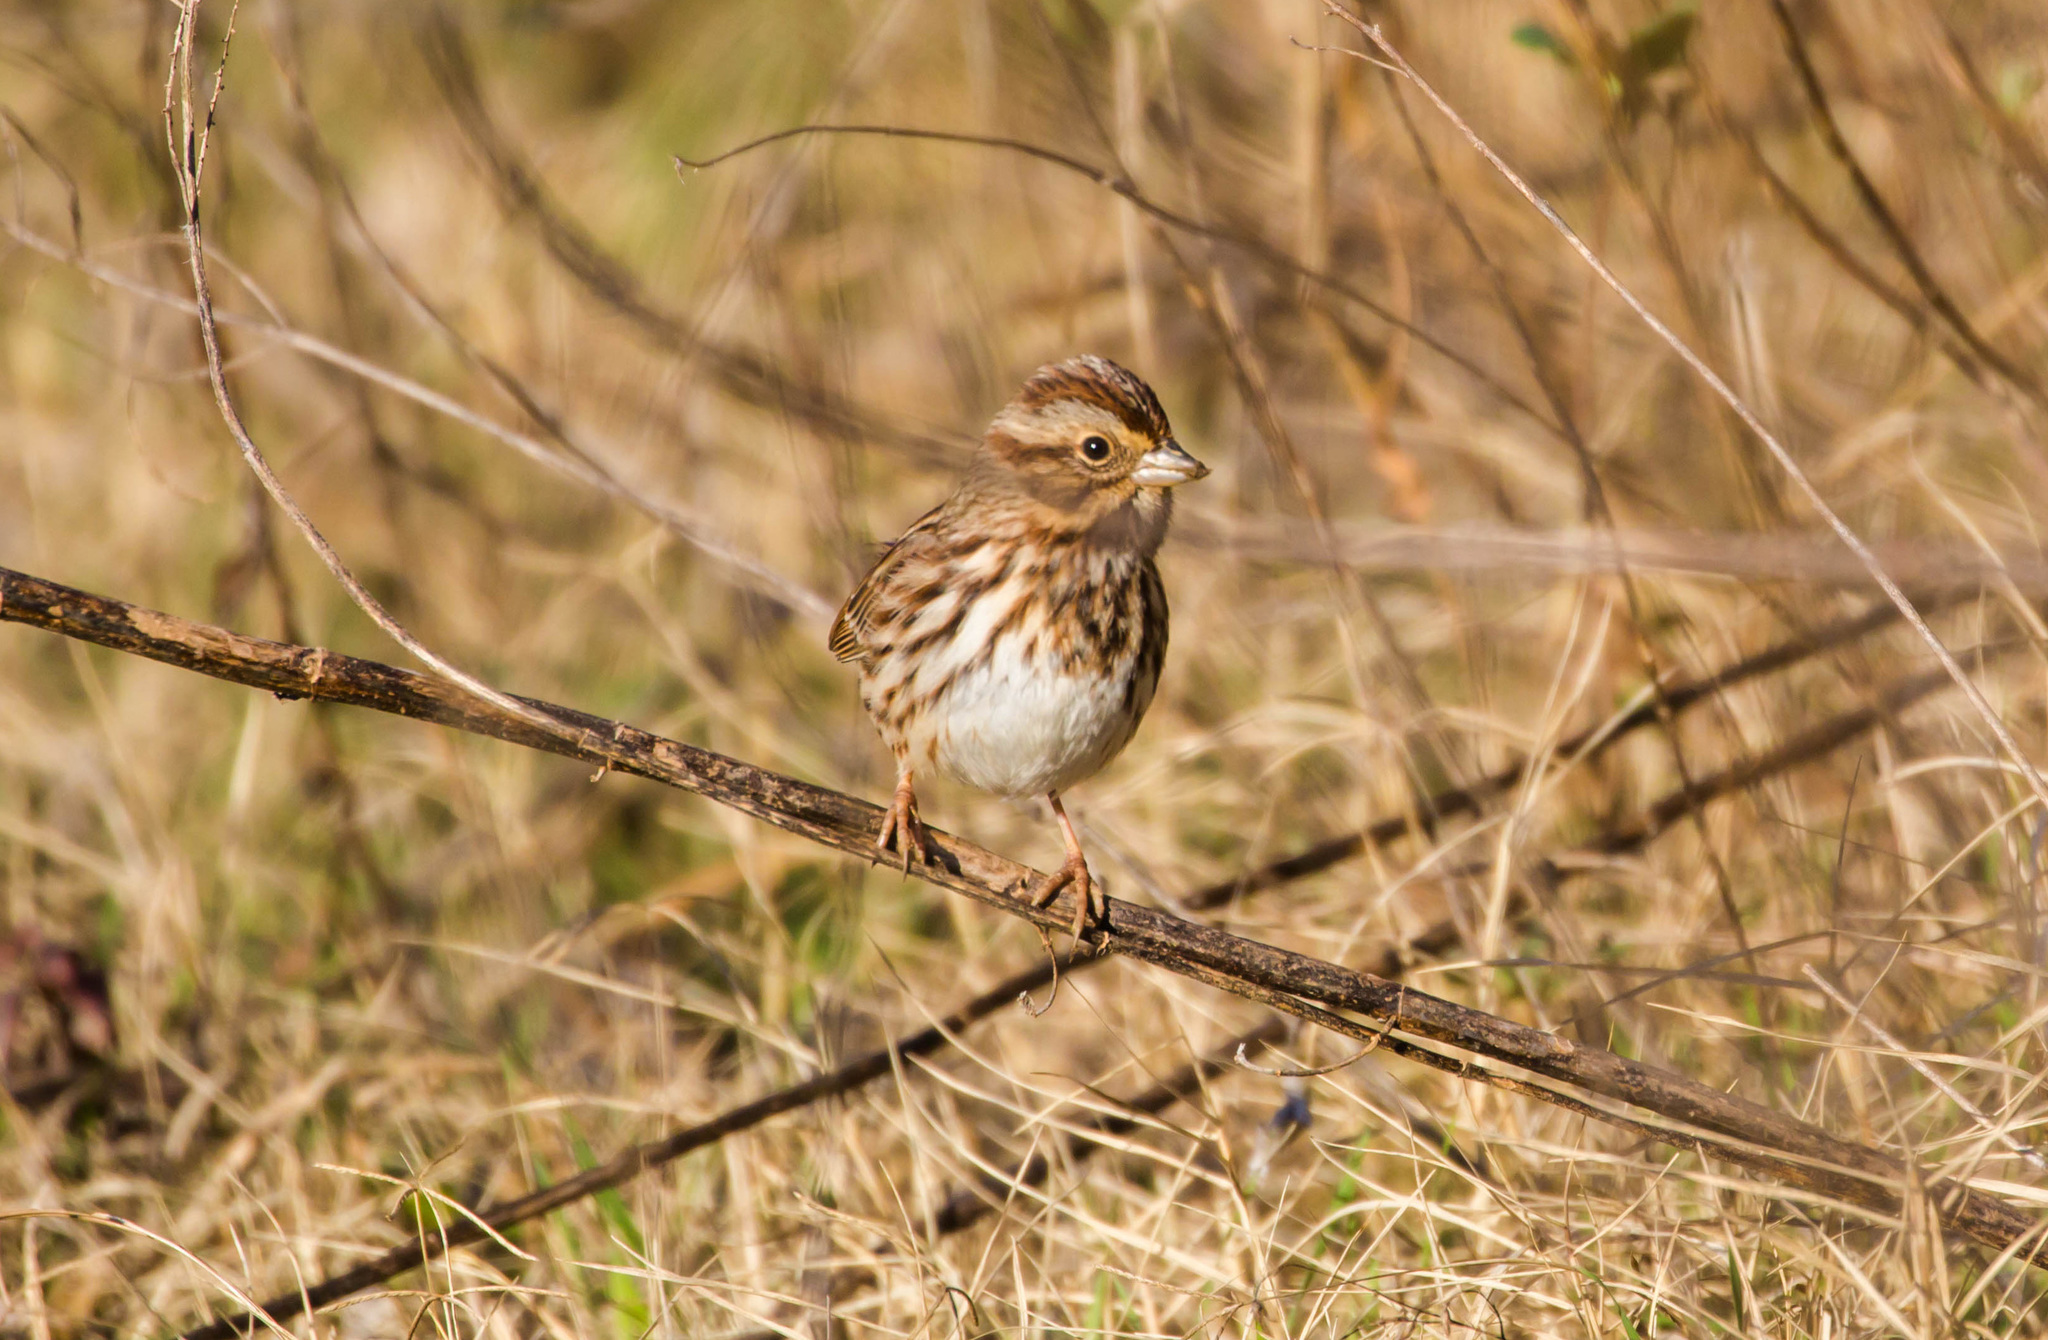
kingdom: Animalia
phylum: Chordata
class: Aves
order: Passeriformes
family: Passerellidae
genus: Melospiza
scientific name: Melospiza melodia
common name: Song sparrow
